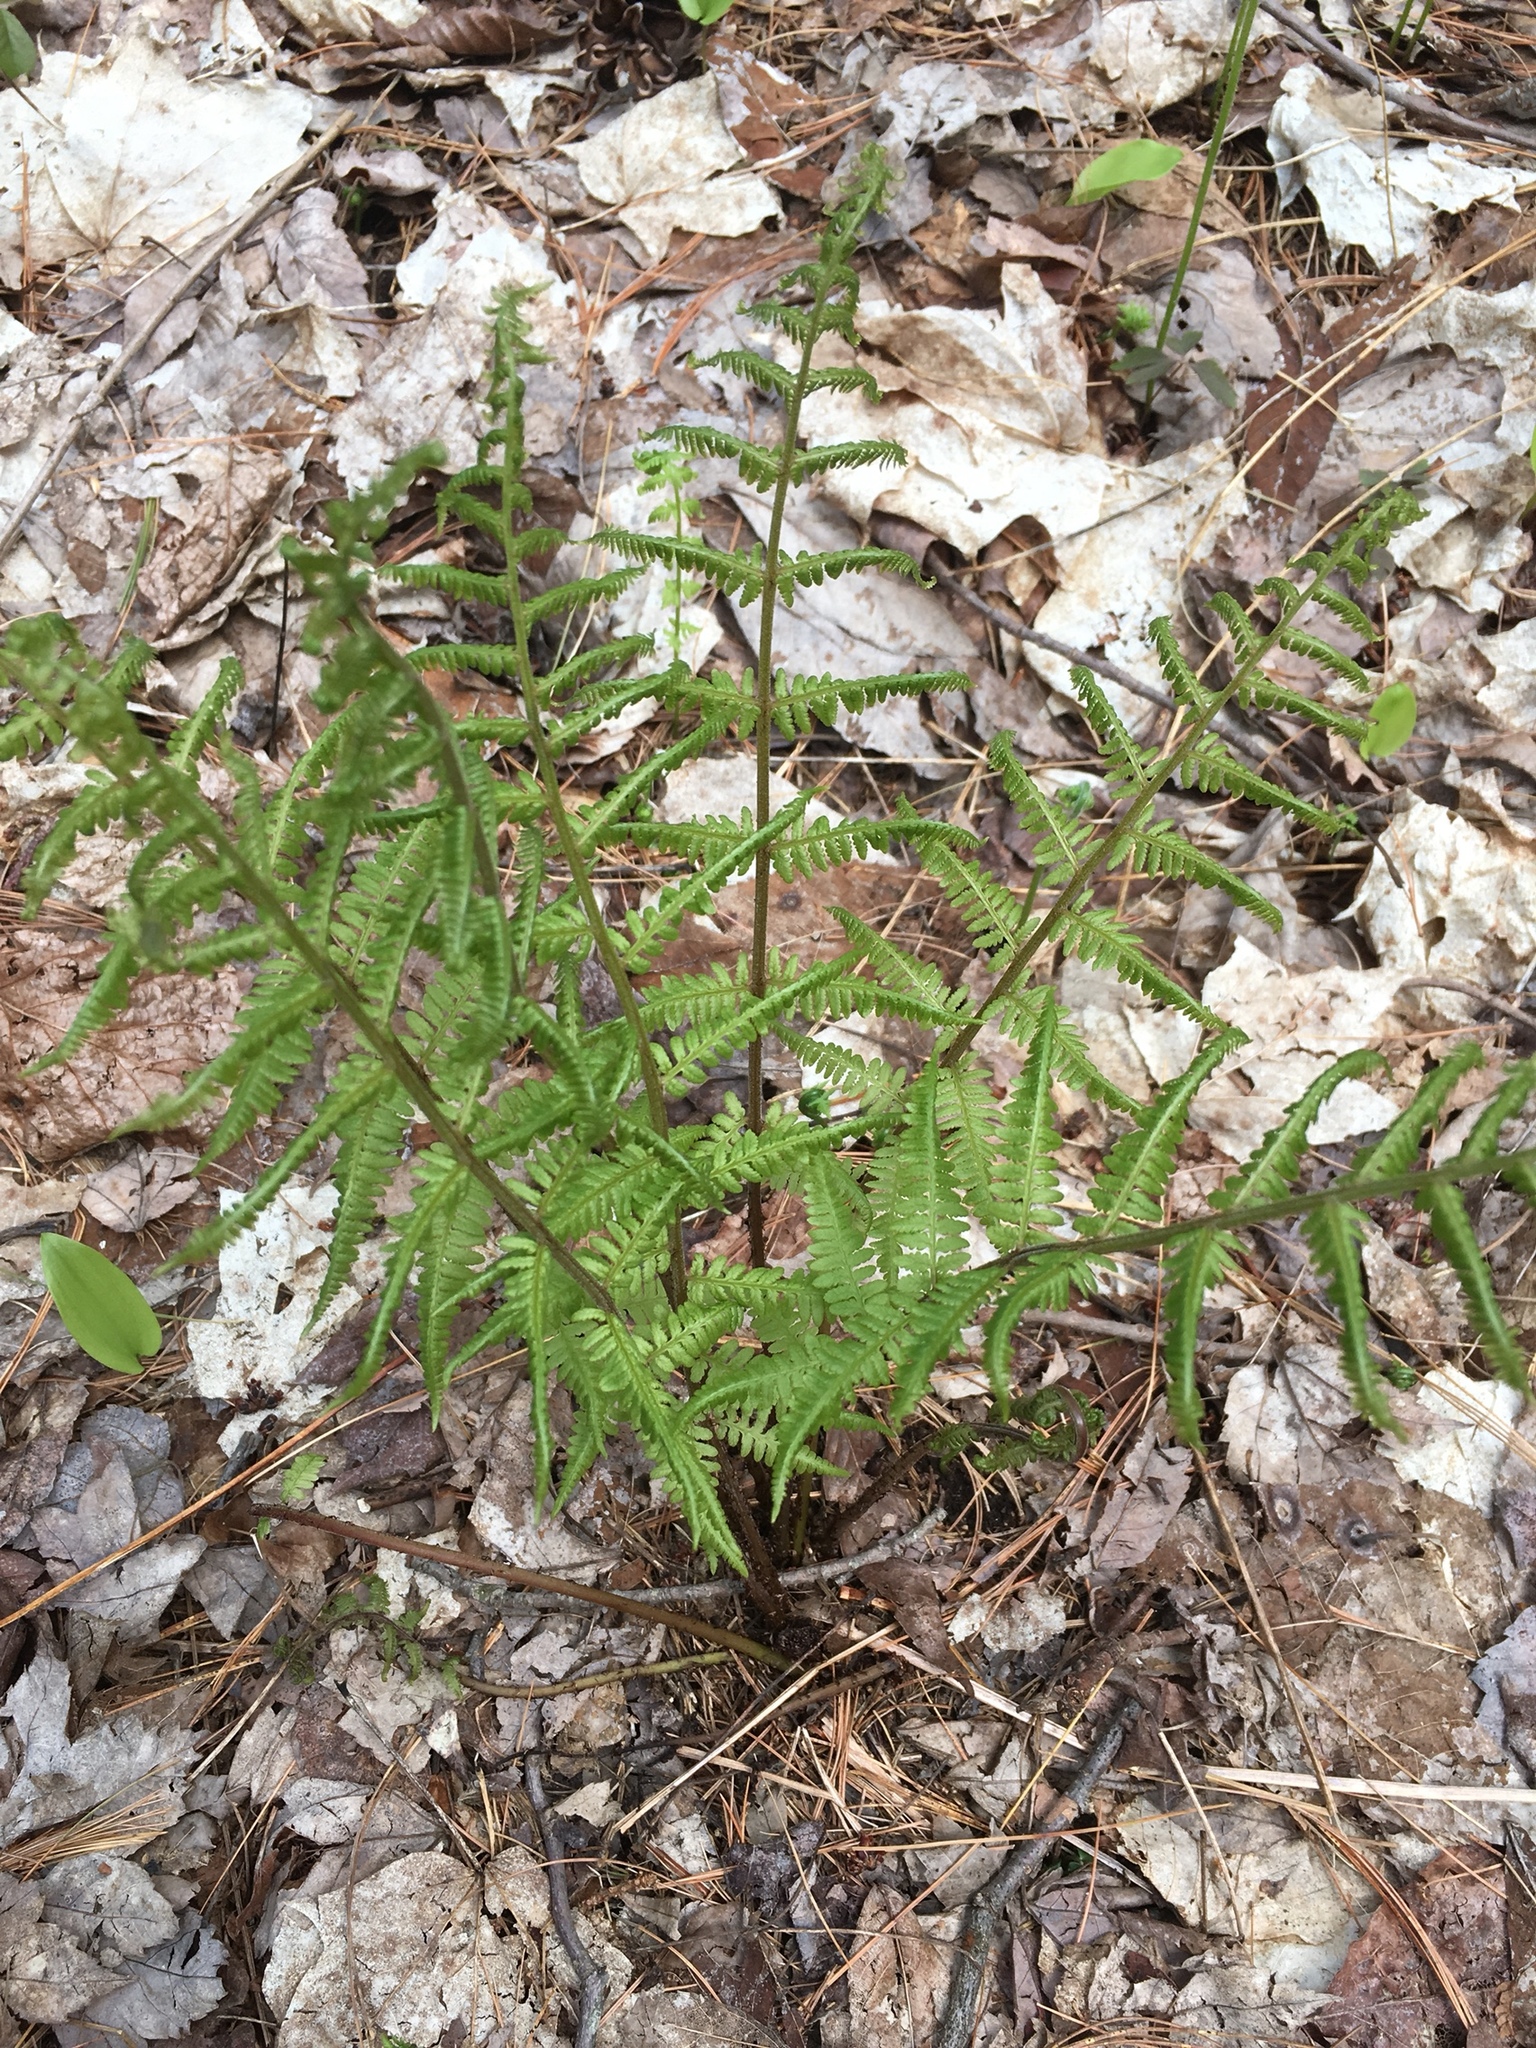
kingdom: Plantae
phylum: Tracheophyta
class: Polypodiopsida
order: Polypodiales
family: Athyriaceae
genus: Athyrium
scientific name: Athyrium angustum
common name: Northern lady fern
